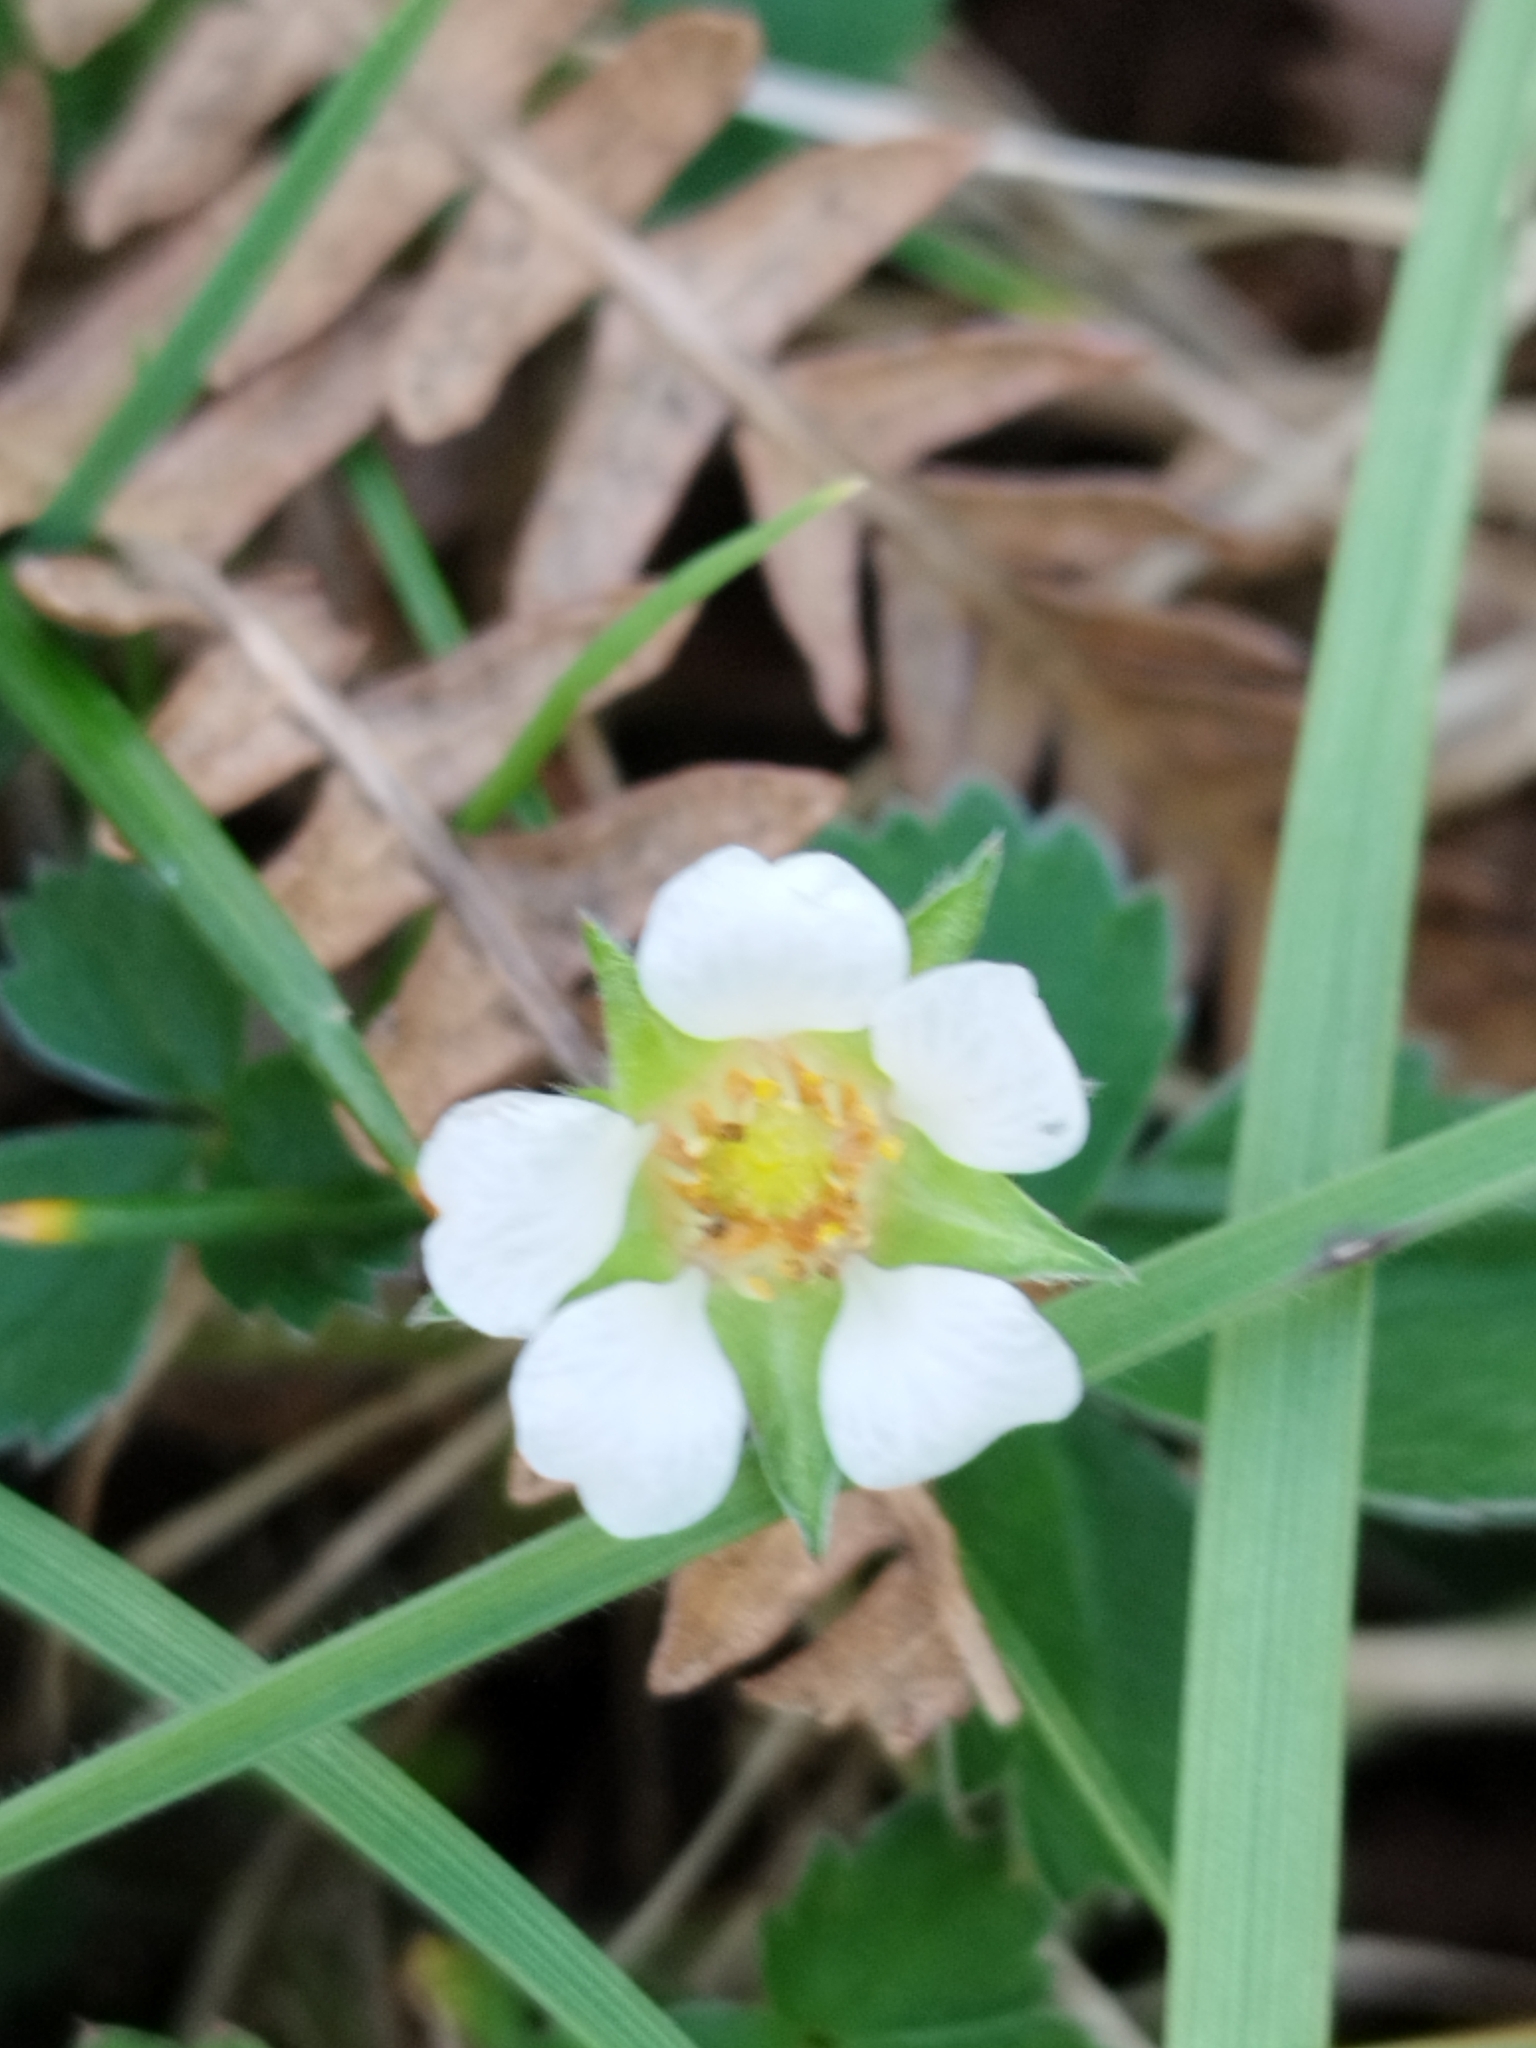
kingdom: Plantae
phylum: Tracheophyta
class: Magnoliopsida
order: Rosales
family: Rosaceae
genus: Potentilla
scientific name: Potentilla sterilis
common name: Barren strawberry
